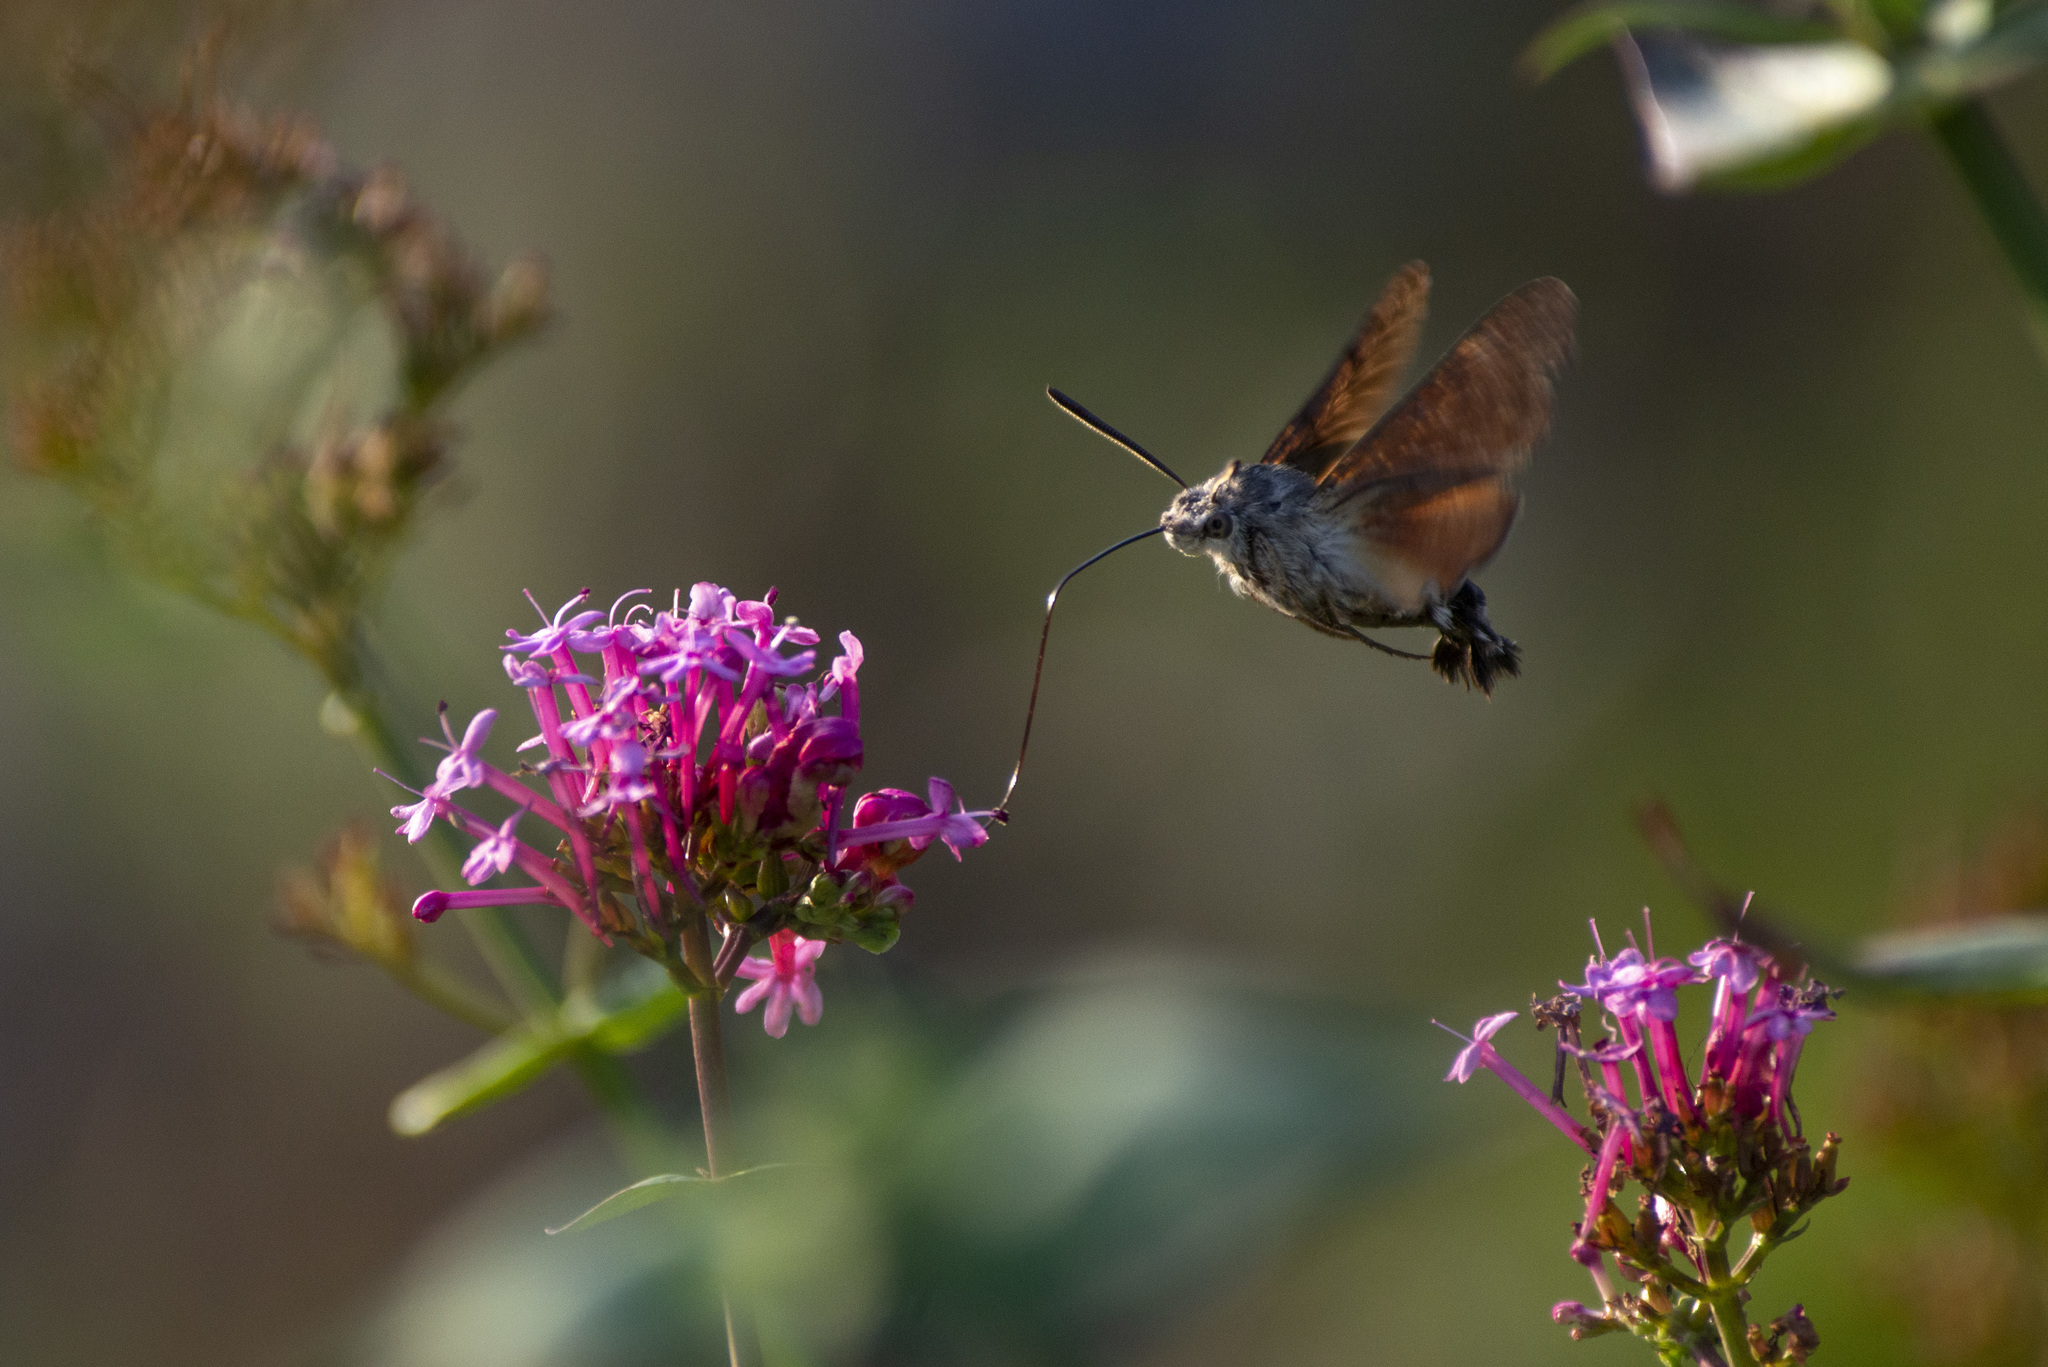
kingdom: Animalia
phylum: Arthropoda
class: Insecta
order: Lepidoptera
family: Sphingidae
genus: Macroglossum
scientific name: Macroglossum stellatarum
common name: Humming-bird hawk-moth
